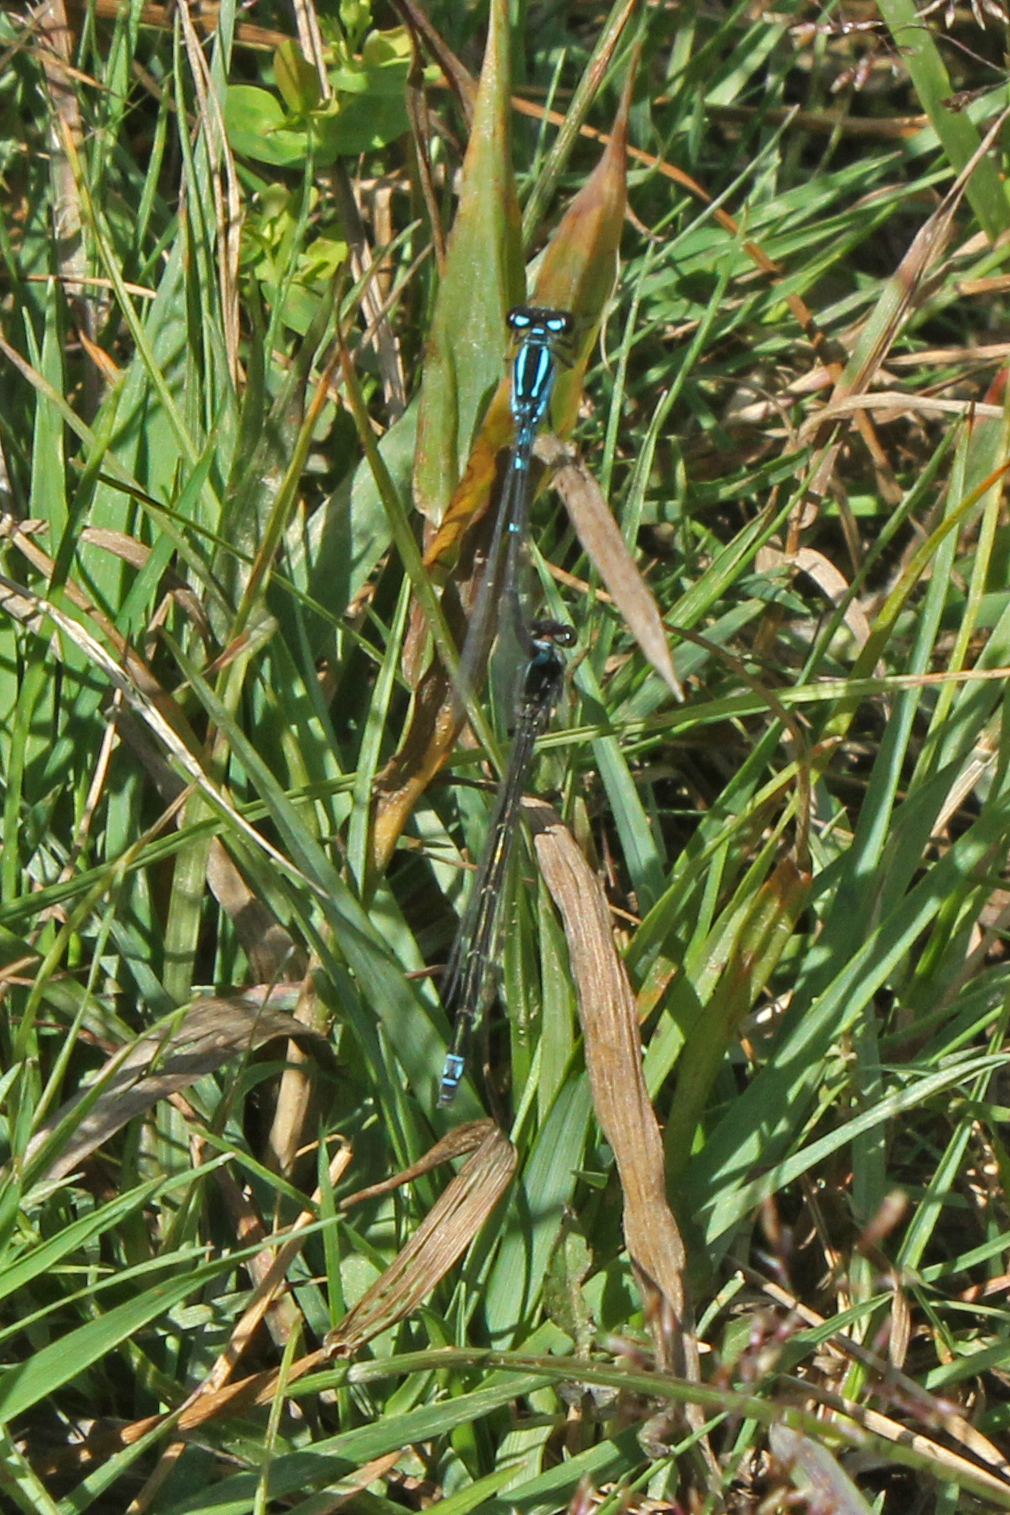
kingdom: Animalia
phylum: Arthropoda
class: Insecta
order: Odonata
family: Coenagrionidae
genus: Enallagma
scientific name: Enallagma geminatum
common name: Skimming bluet
